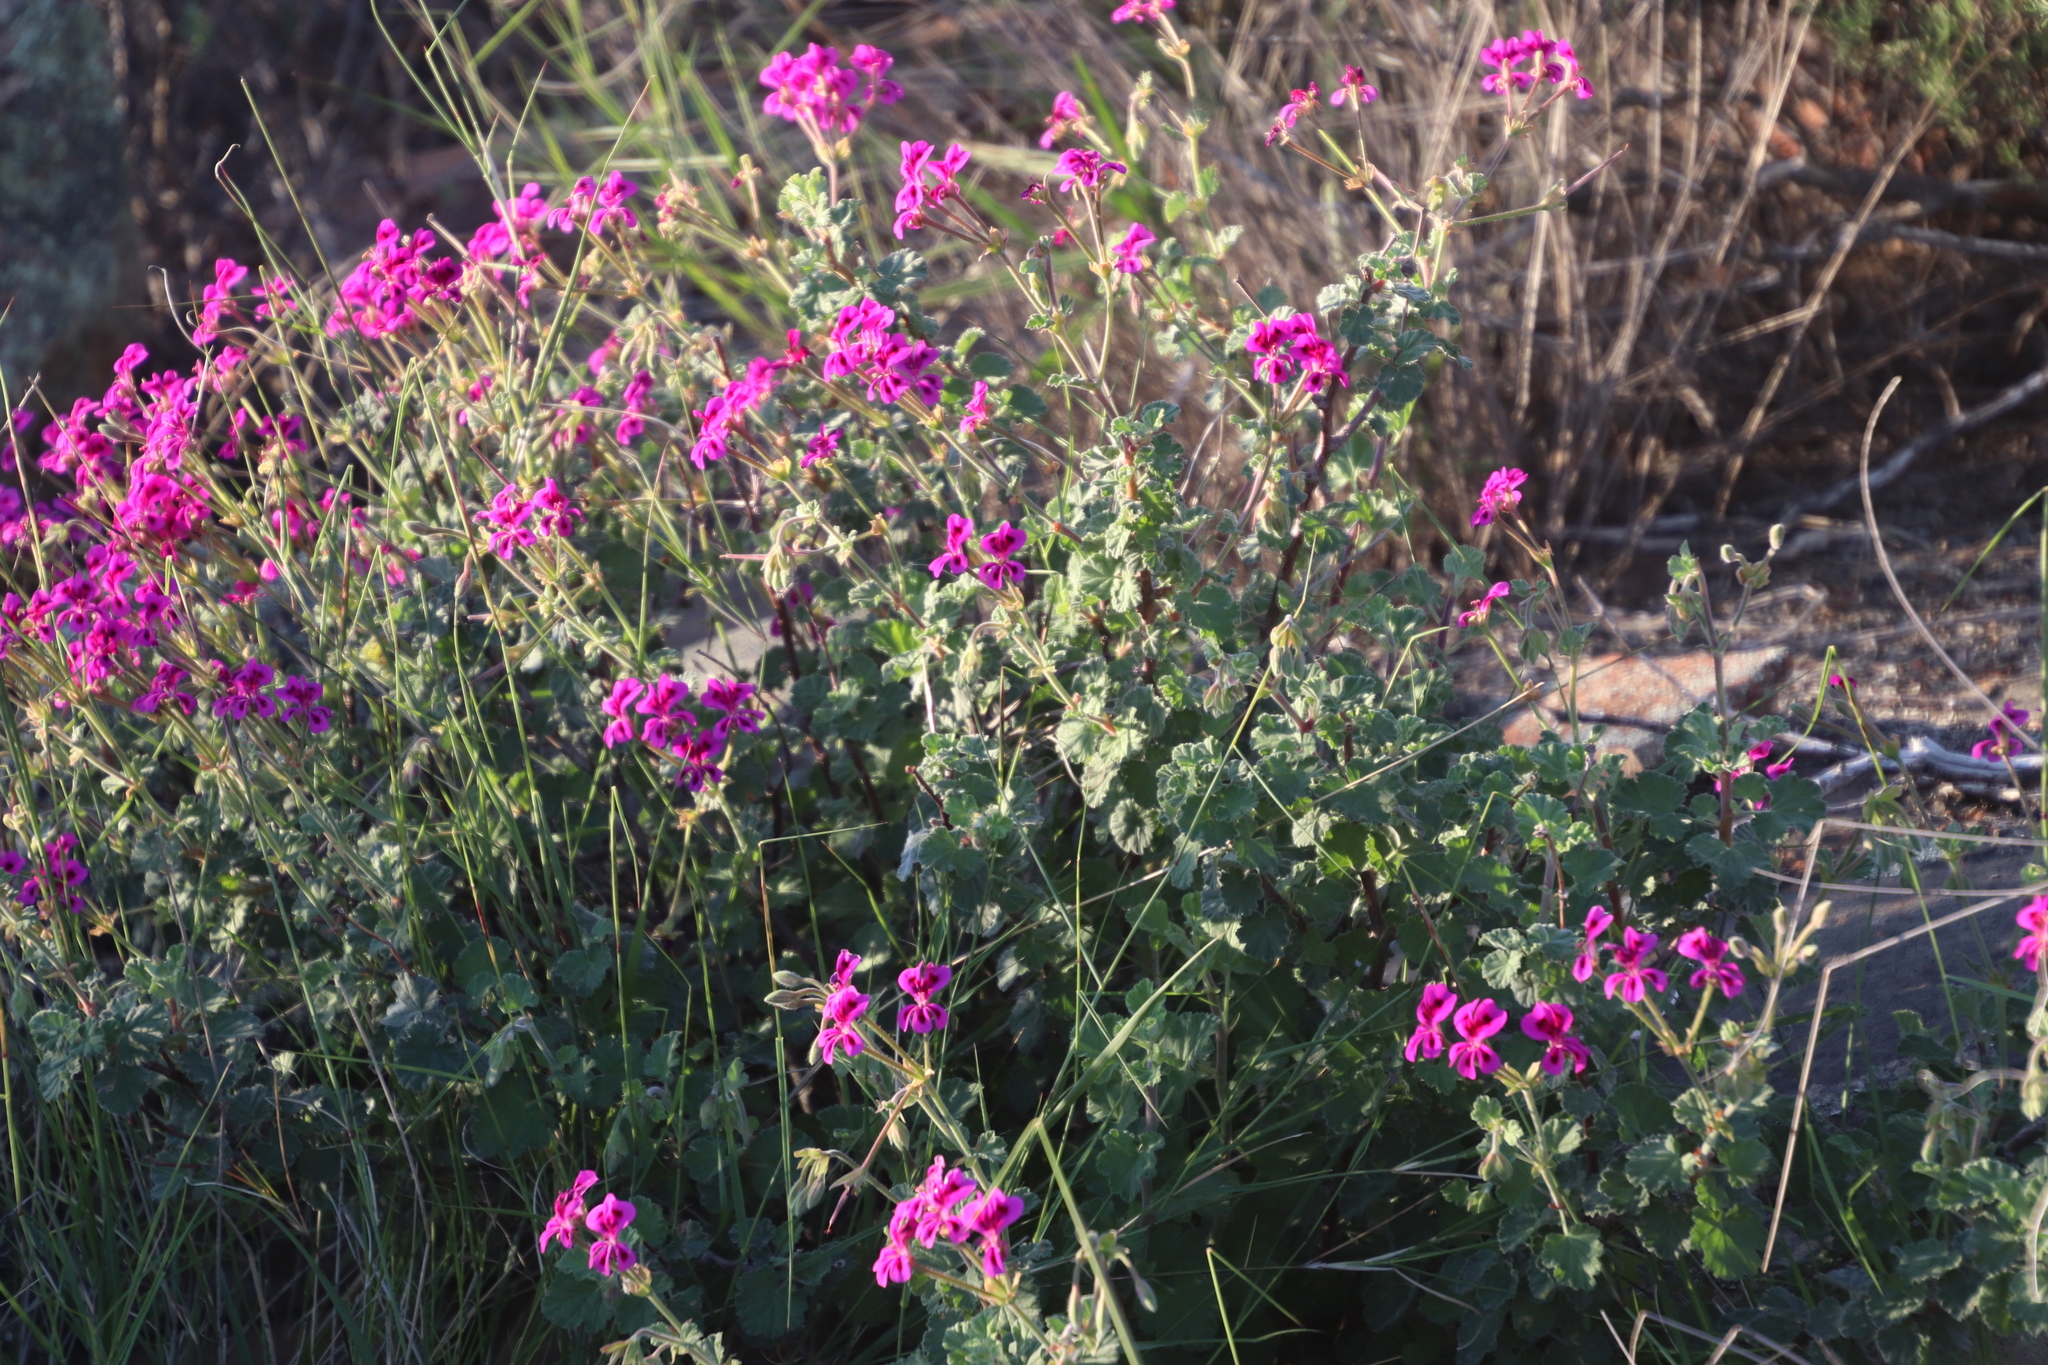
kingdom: Plantae
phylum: Tracheophyta
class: Magnoliopsida
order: Geraniales
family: Geraniaceae
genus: Pelargonium
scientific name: Pelargonium magenteum
